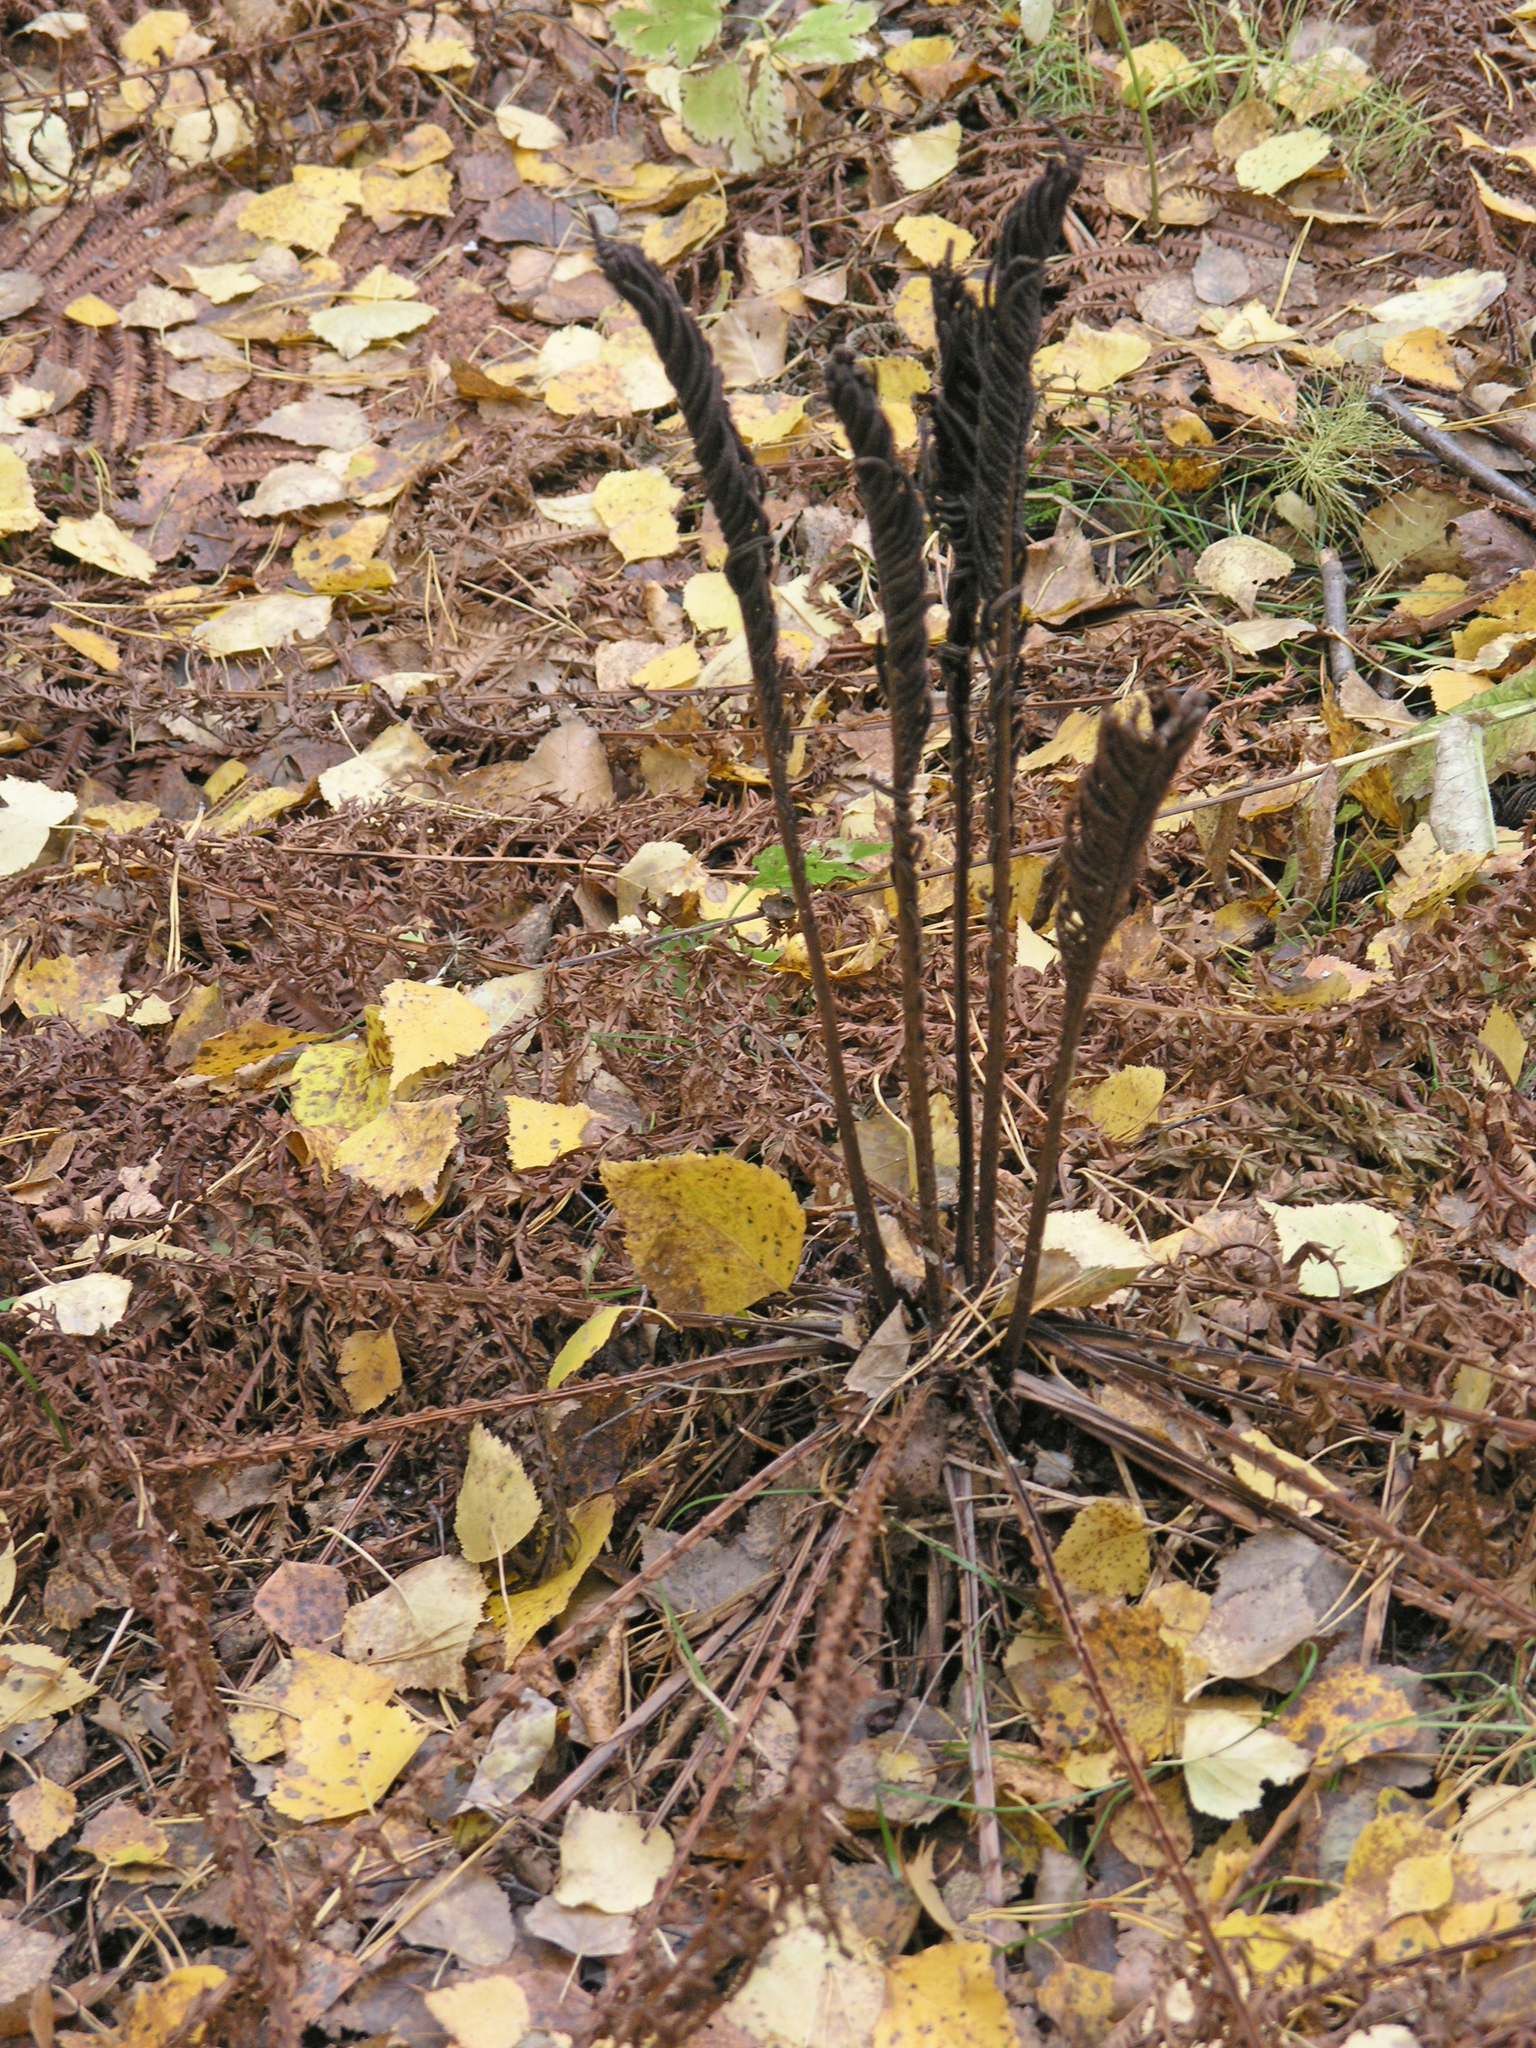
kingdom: Plantae
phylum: Tracheophyta
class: Polypodiopsida
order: Polypodiales
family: Onocleaceae
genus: Matteuccia
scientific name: Matteuccia struthiopteris
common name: Ostrich fern
